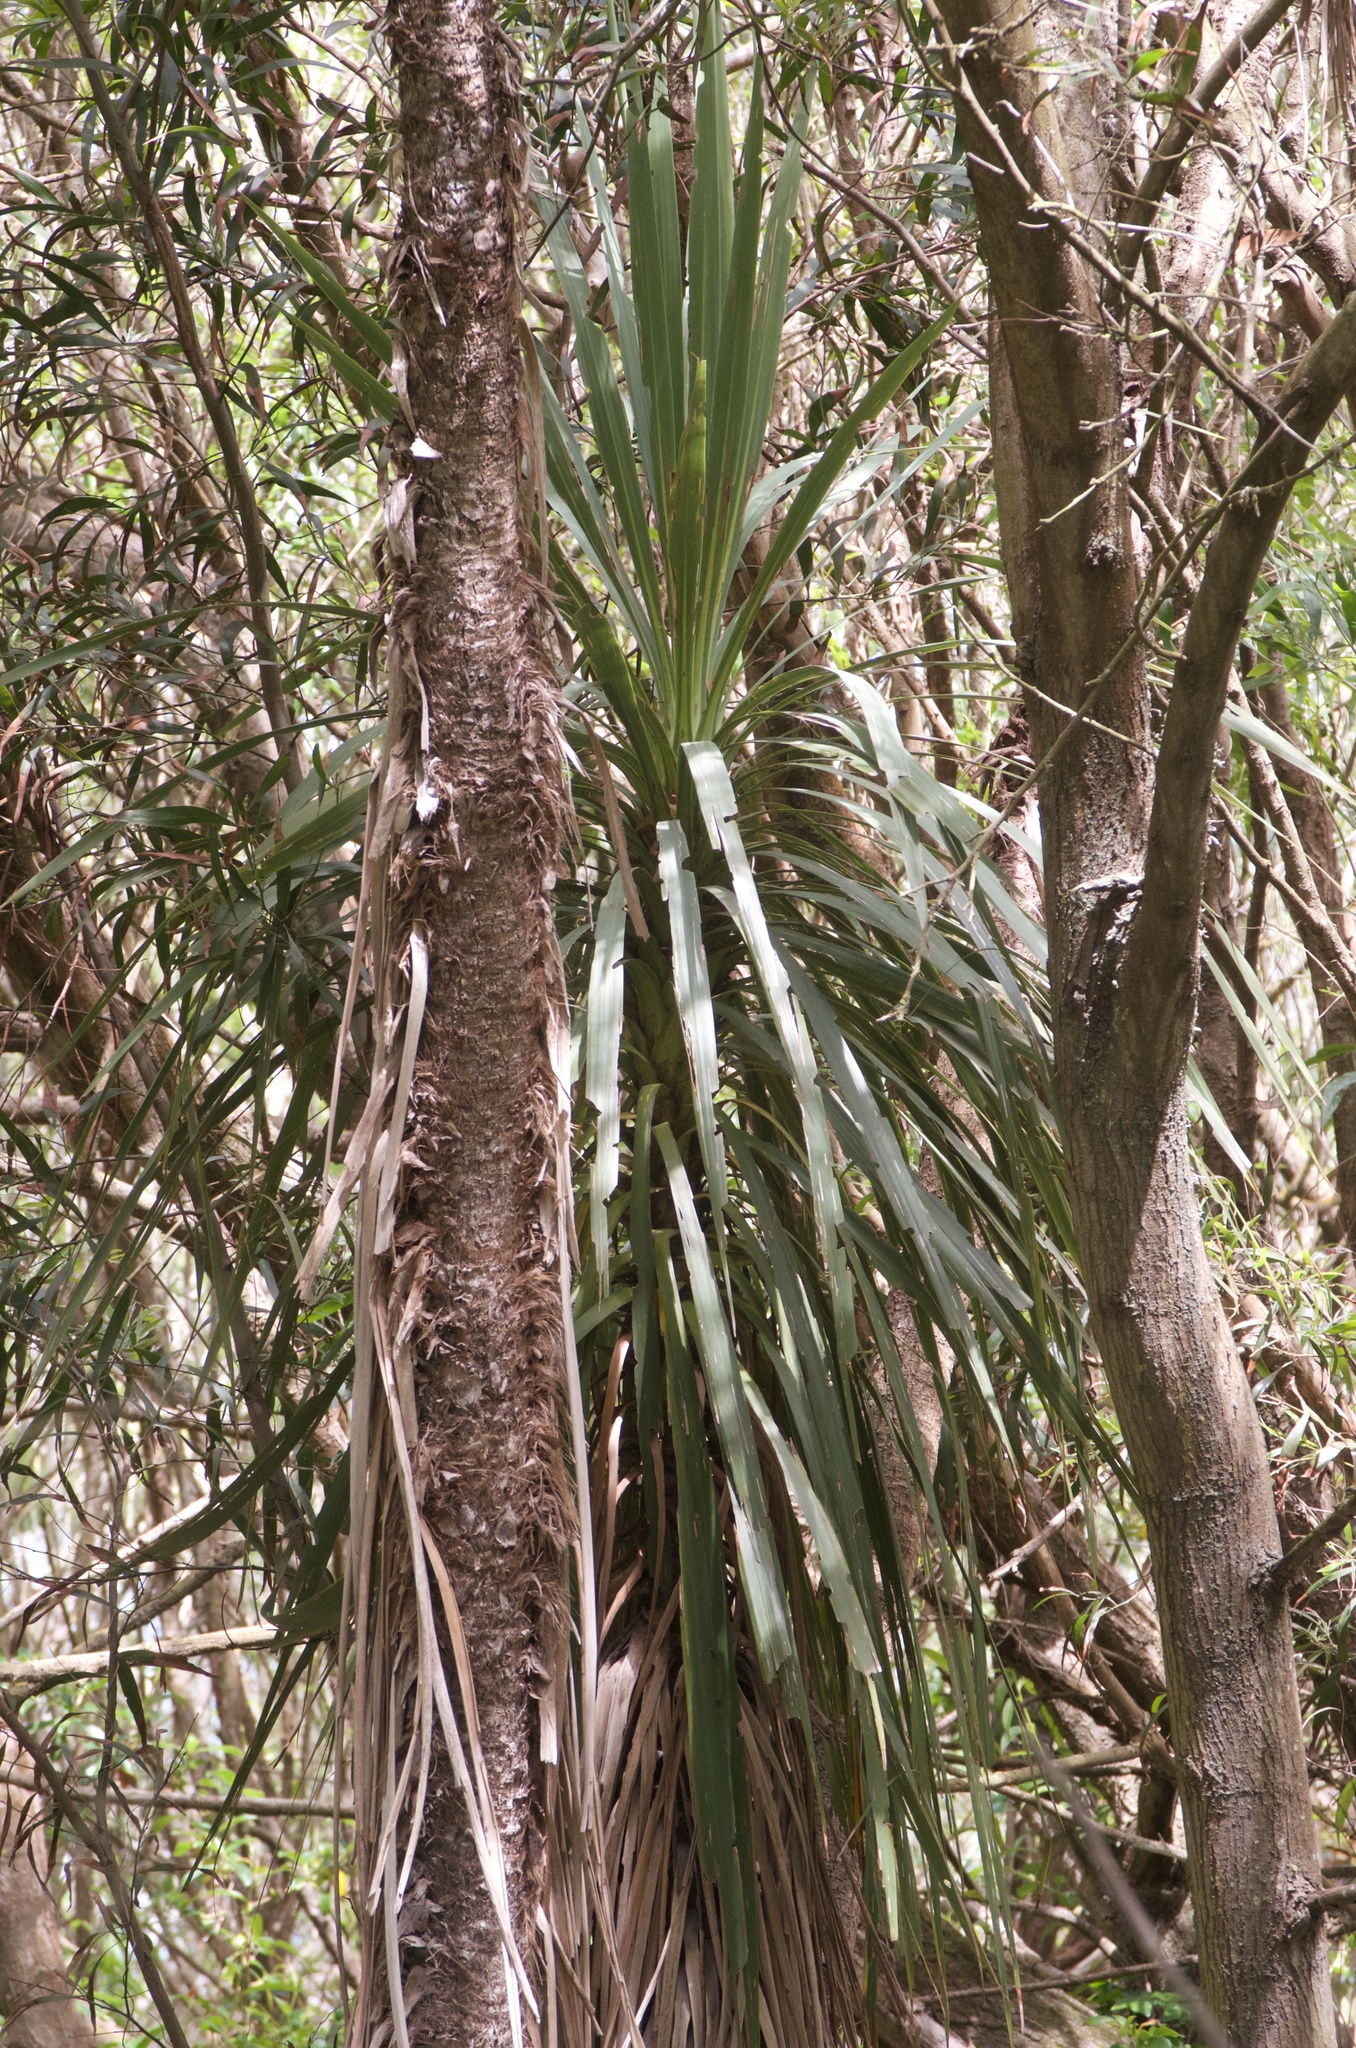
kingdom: Plantae
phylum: Tracheophyta
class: Liliopsida
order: Asparagales
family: Asparagaceae
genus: Cordyline
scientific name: Cordyline australis
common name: Cabbage-palm
